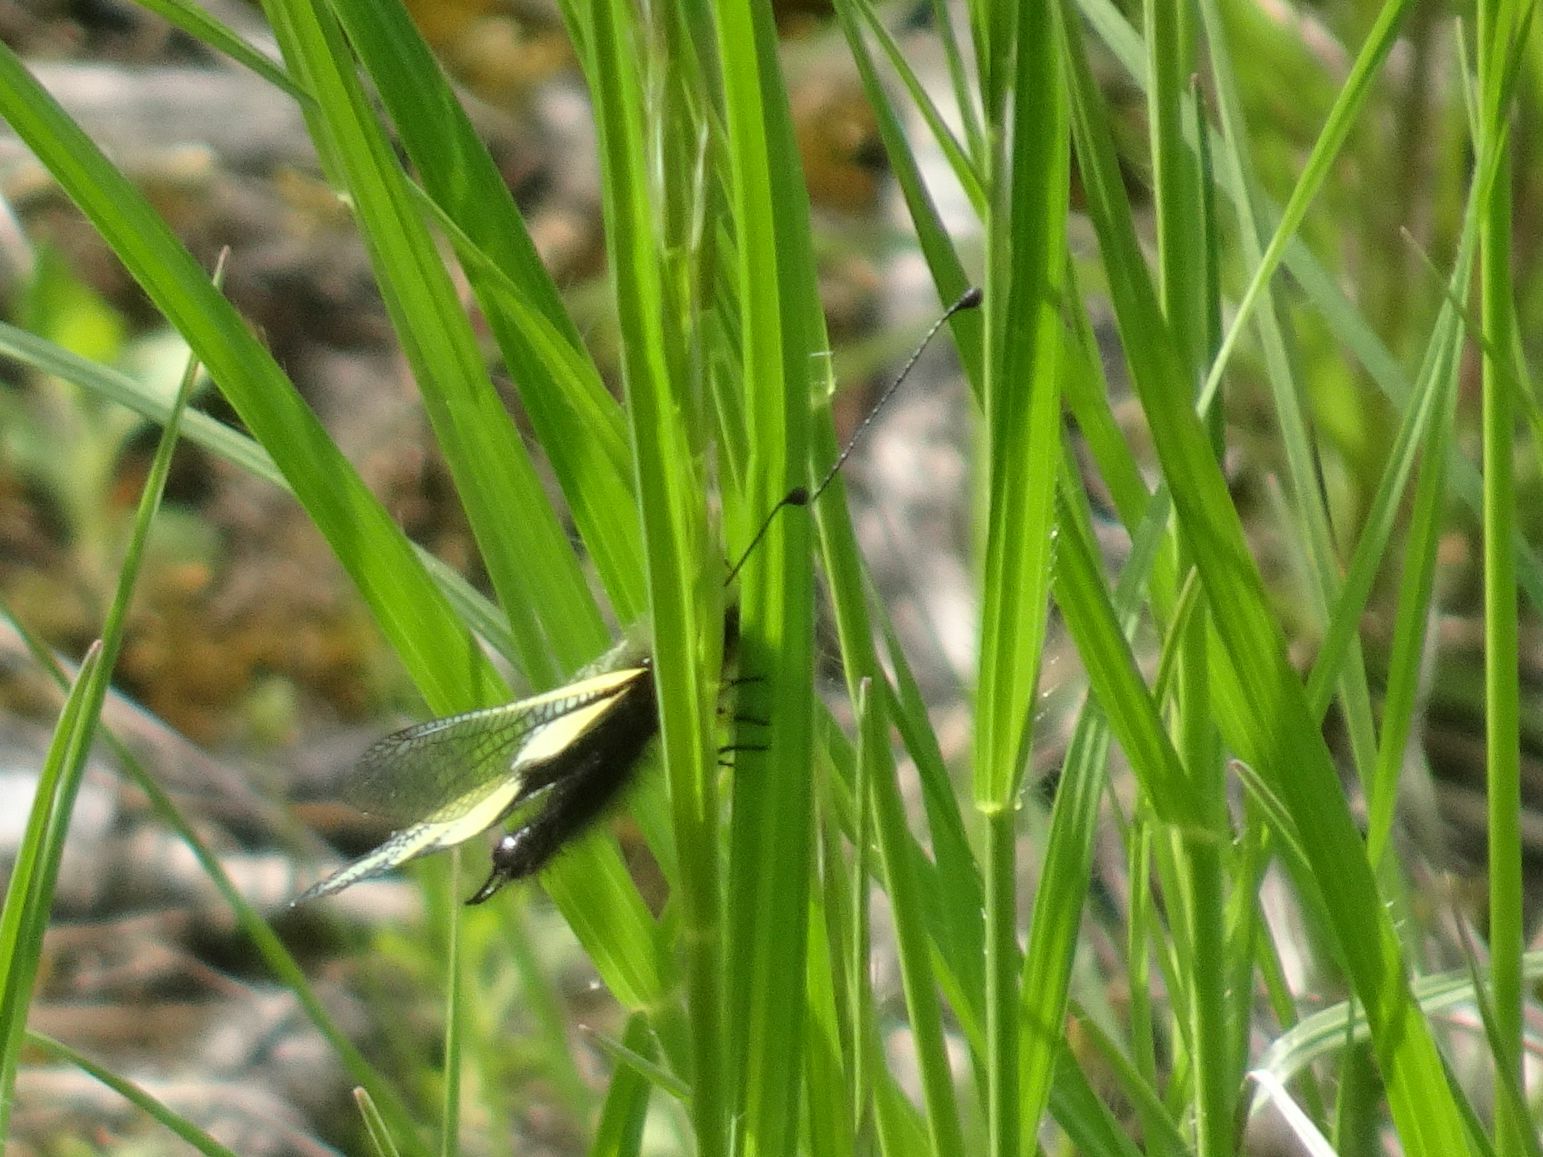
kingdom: Animalia
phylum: Arthropoda
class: Insecta
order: Neuroptera
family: Ascalaphidae
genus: Libelloides
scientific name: Libelloides coccajus
